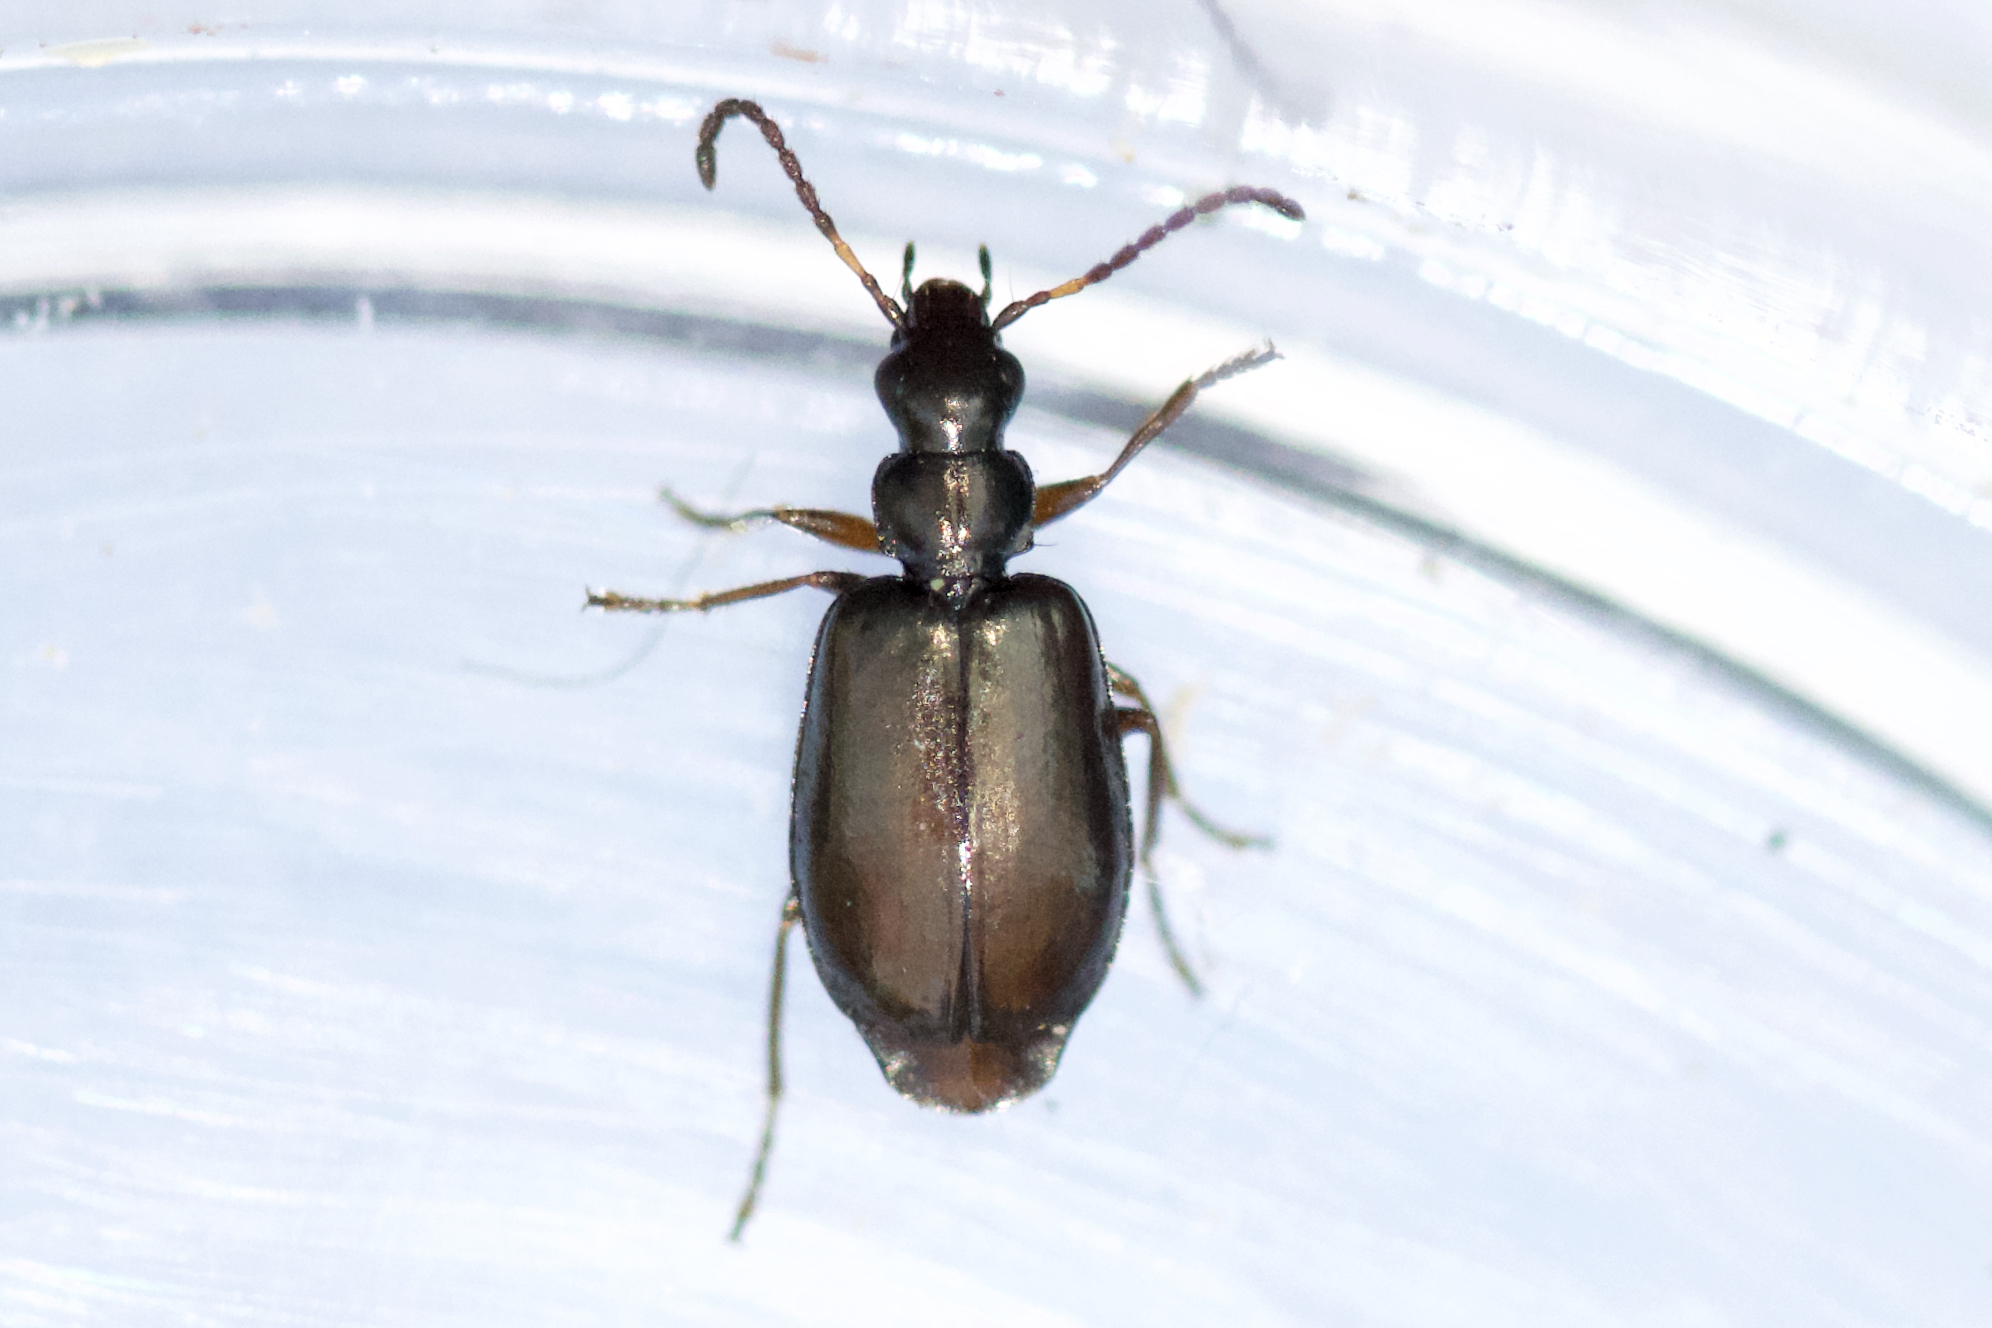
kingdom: Animalia
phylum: Arthropoda
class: Insecta
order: Coleoptera
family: Carabidae
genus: Lebia
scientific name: Lebia pumila
